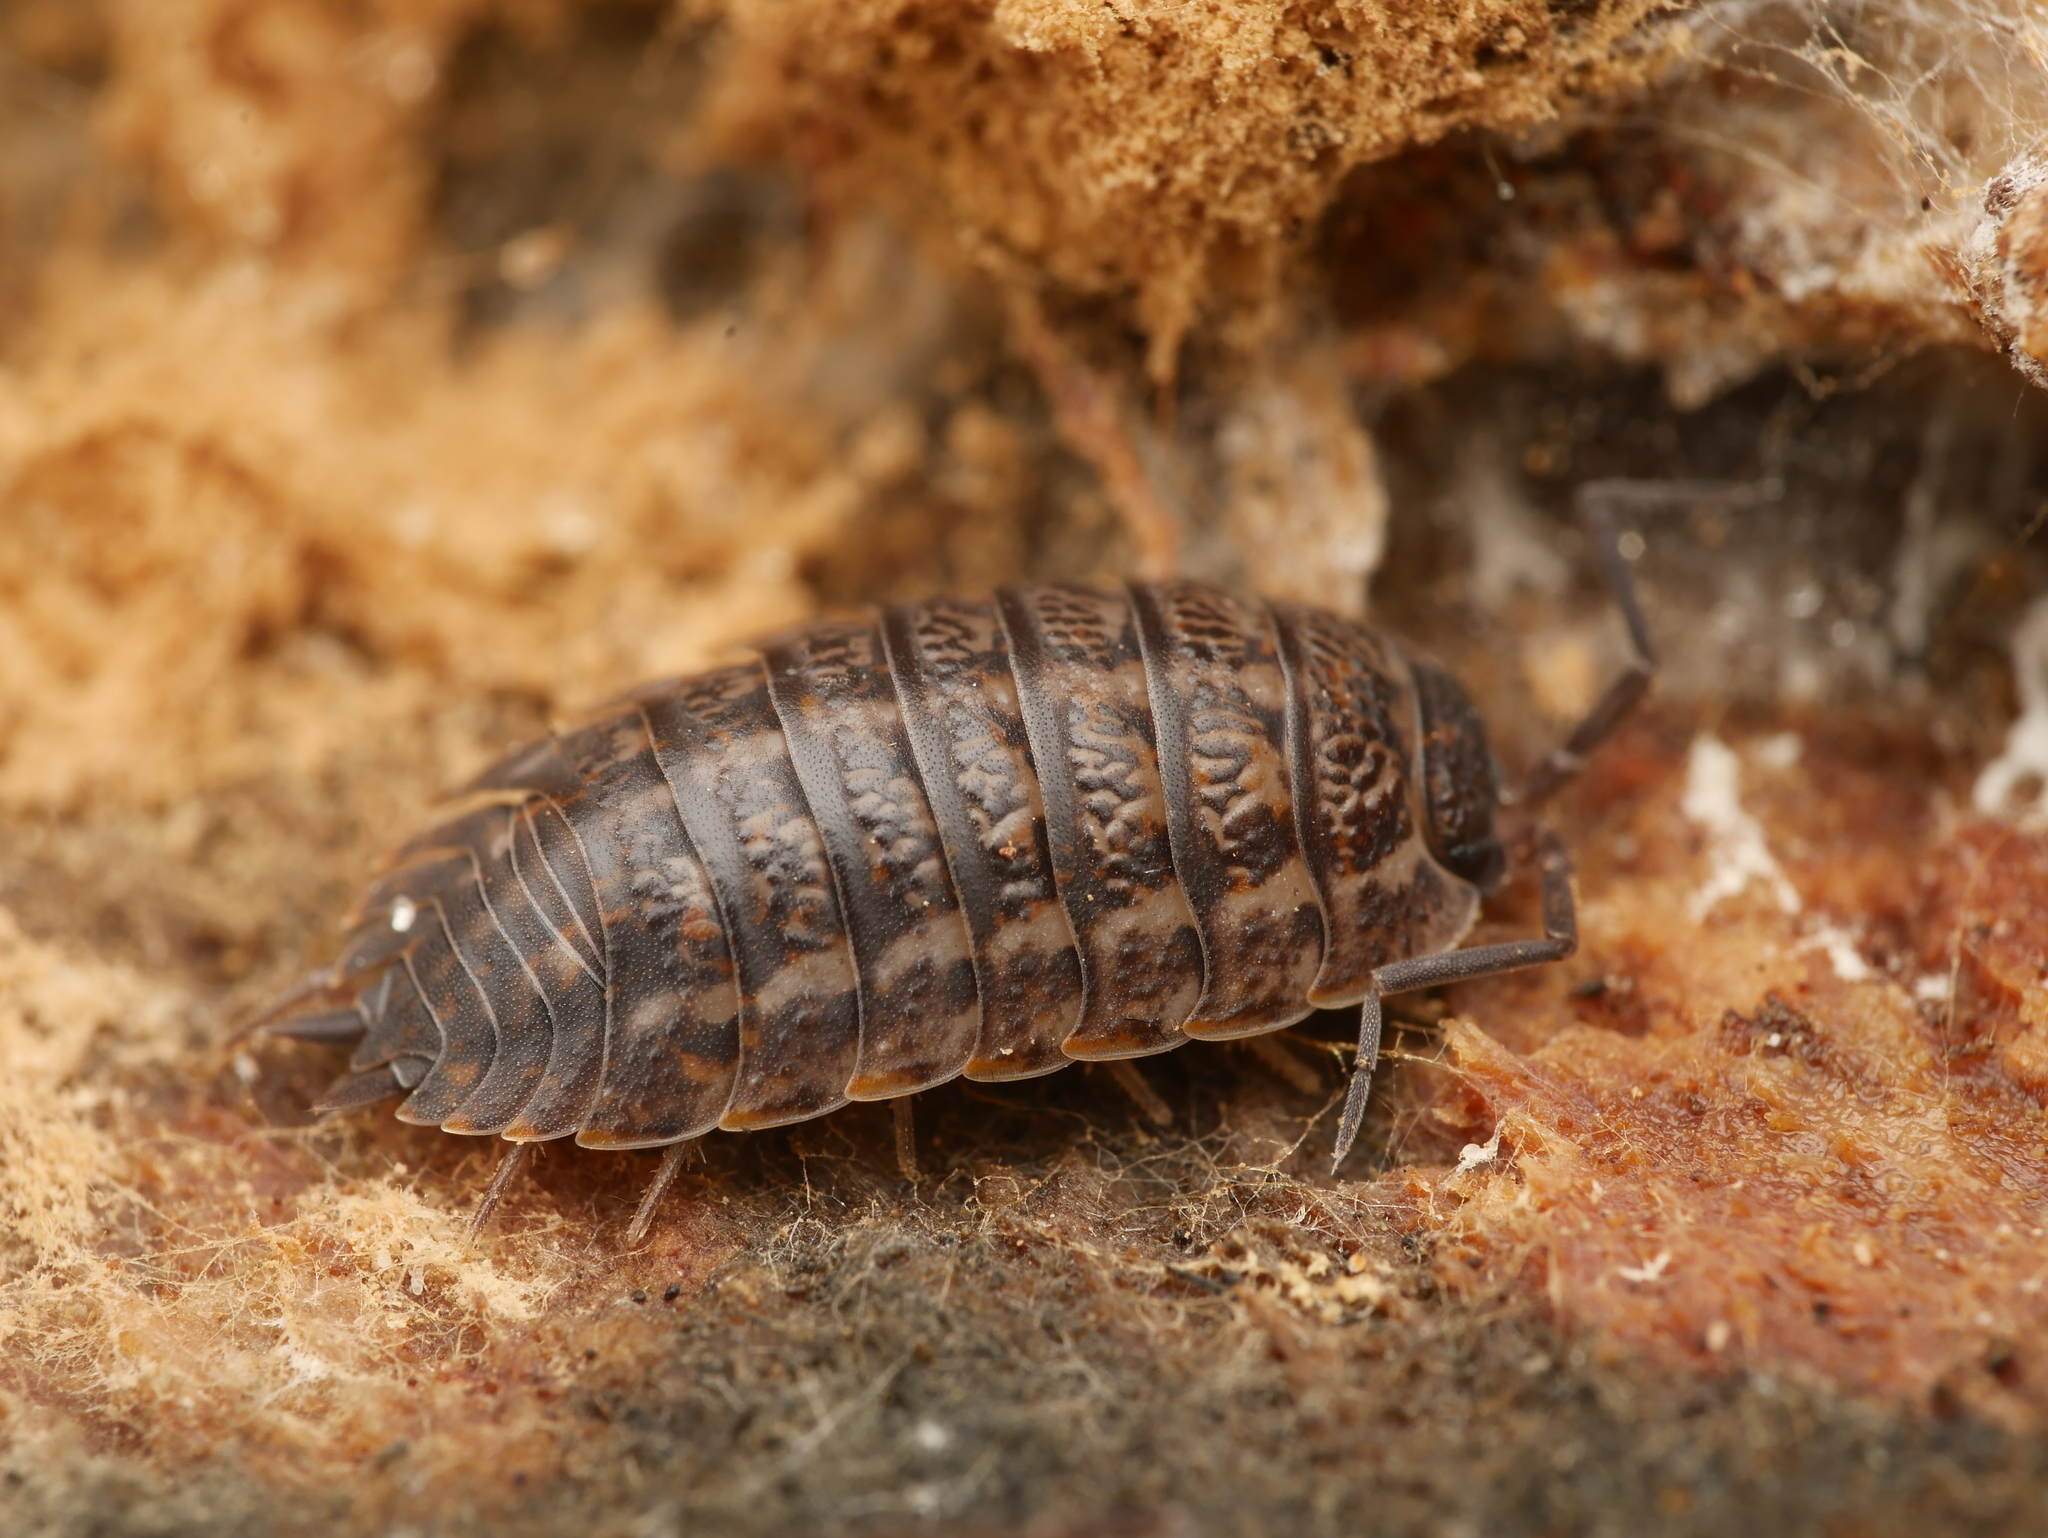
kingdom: Animalia
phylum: Arthropoda
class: Malacostraca
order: Isopoda
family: Trachelipodidae
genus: Trachelipus
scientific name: Trachelipus rathkii
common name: Isopod
